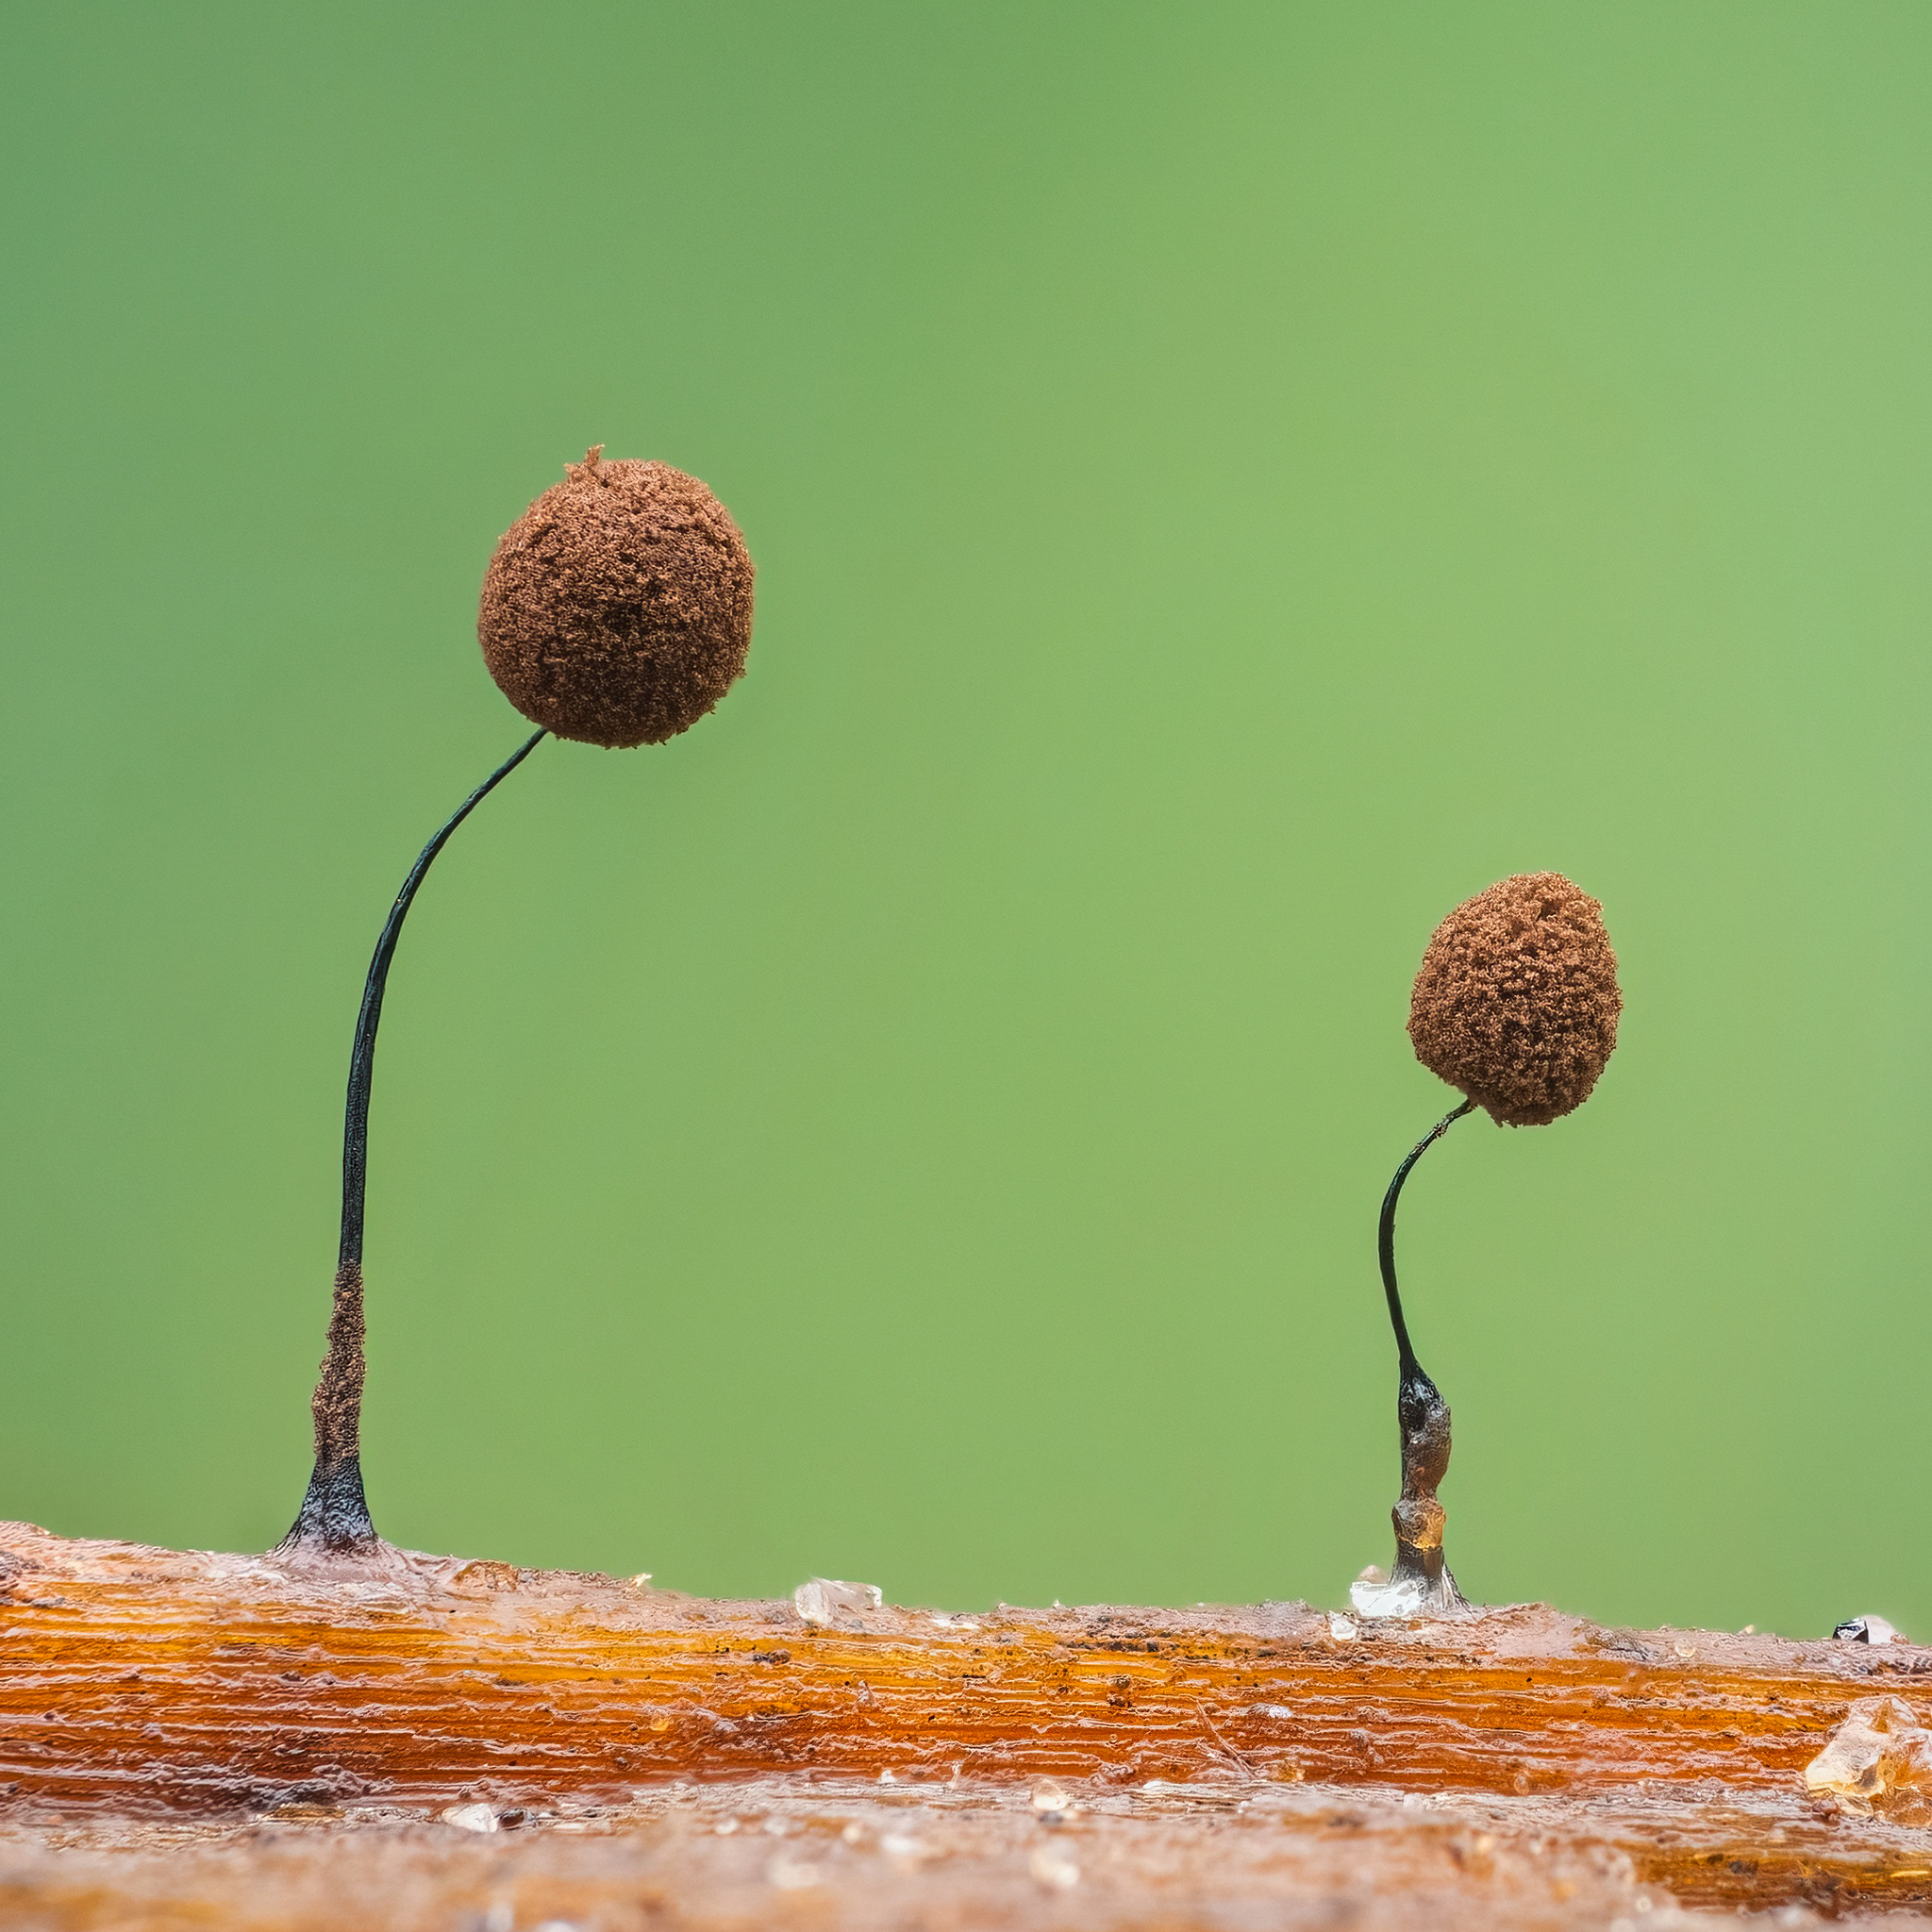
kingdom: Protozoa
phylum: Mycetozoa
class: Myxomycetes
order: Stemonitidales
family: Stemonitidaceae
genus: Comatricha
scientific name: Comatricha nigra
